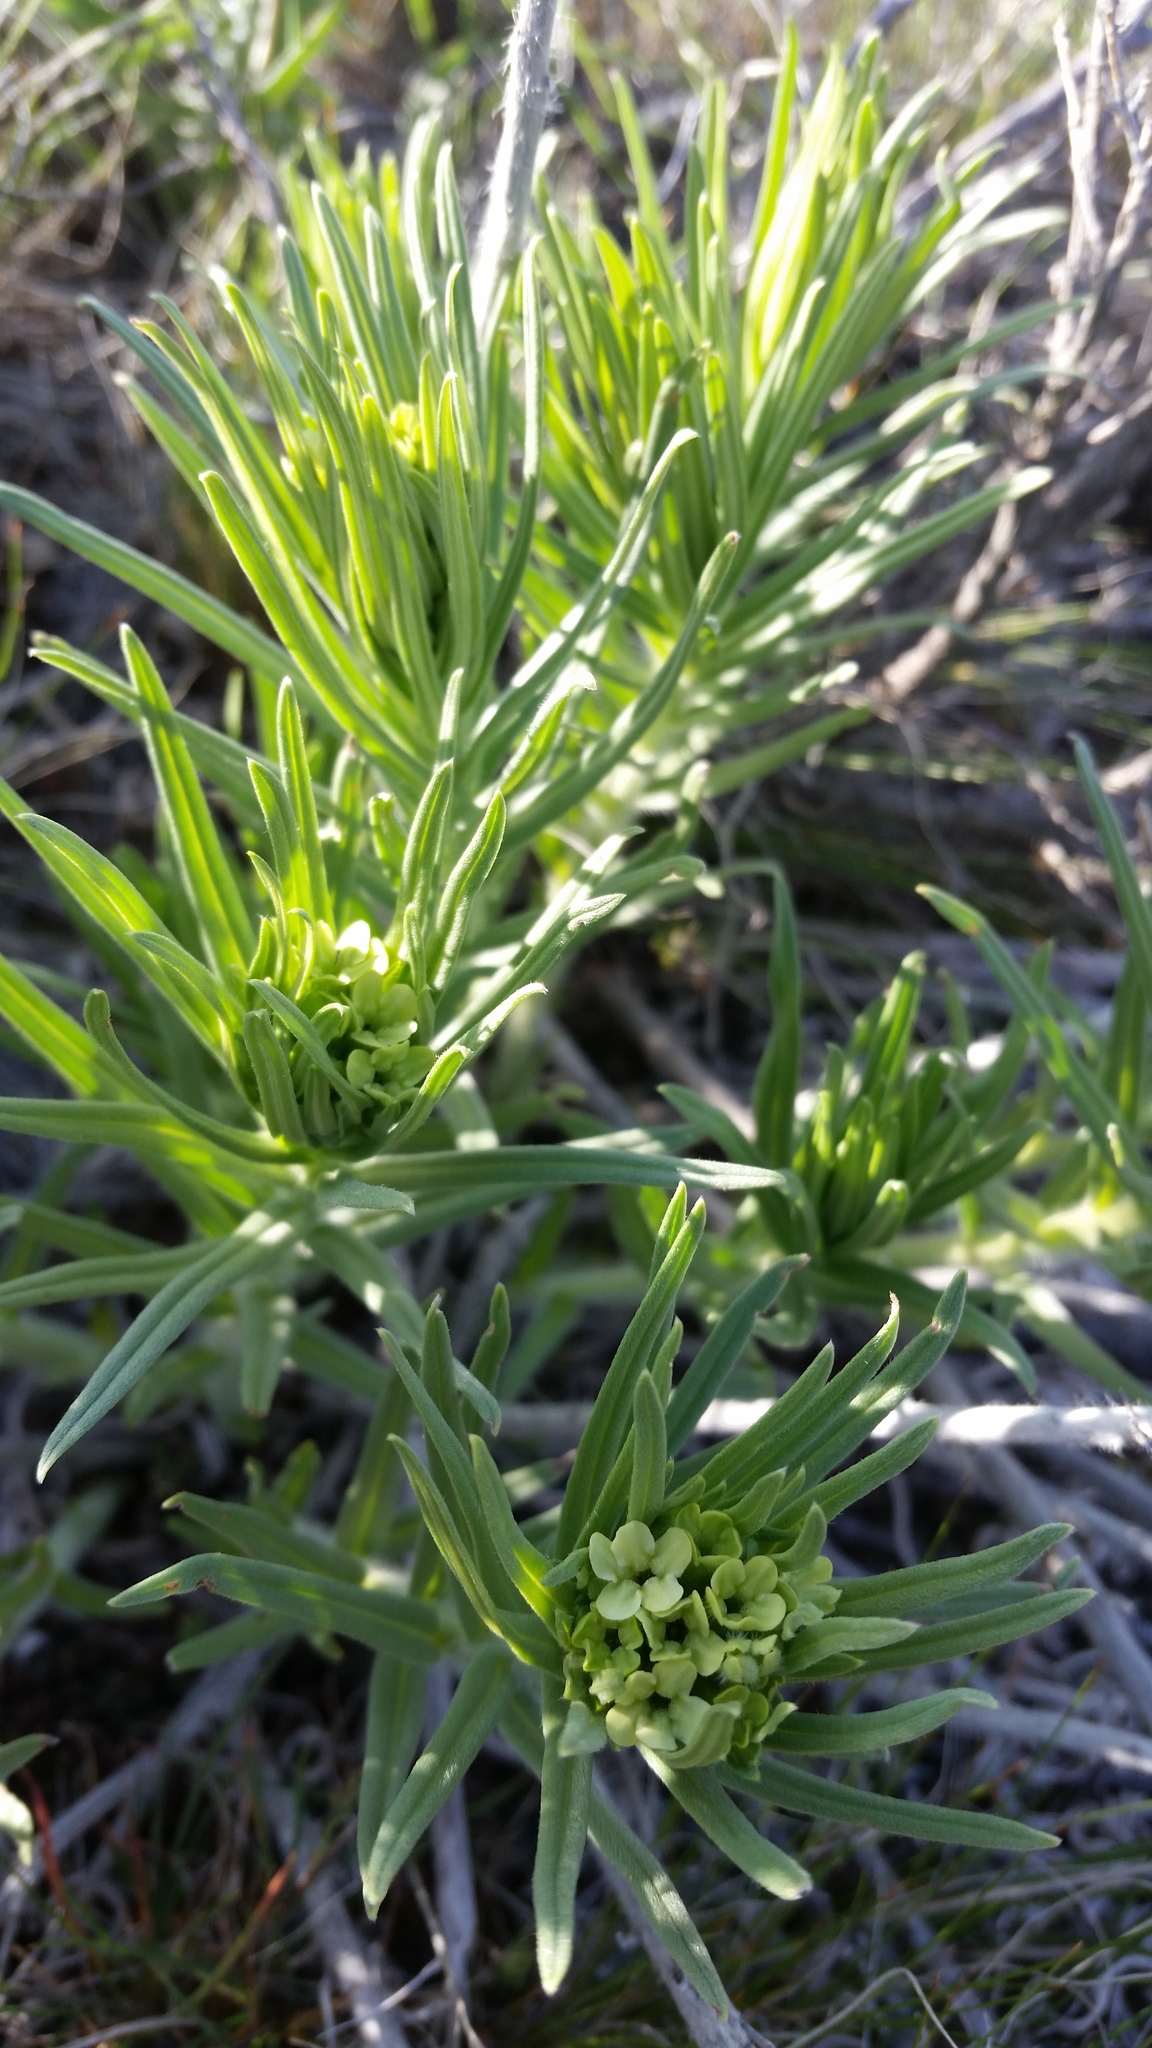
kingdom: Plantae
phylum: Tracheophyta
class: Magnoliopsida
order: Boraginales
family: Boraginaceae
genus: Lithospermum
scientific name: Lithospermum ruderale
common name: Western gromwell
